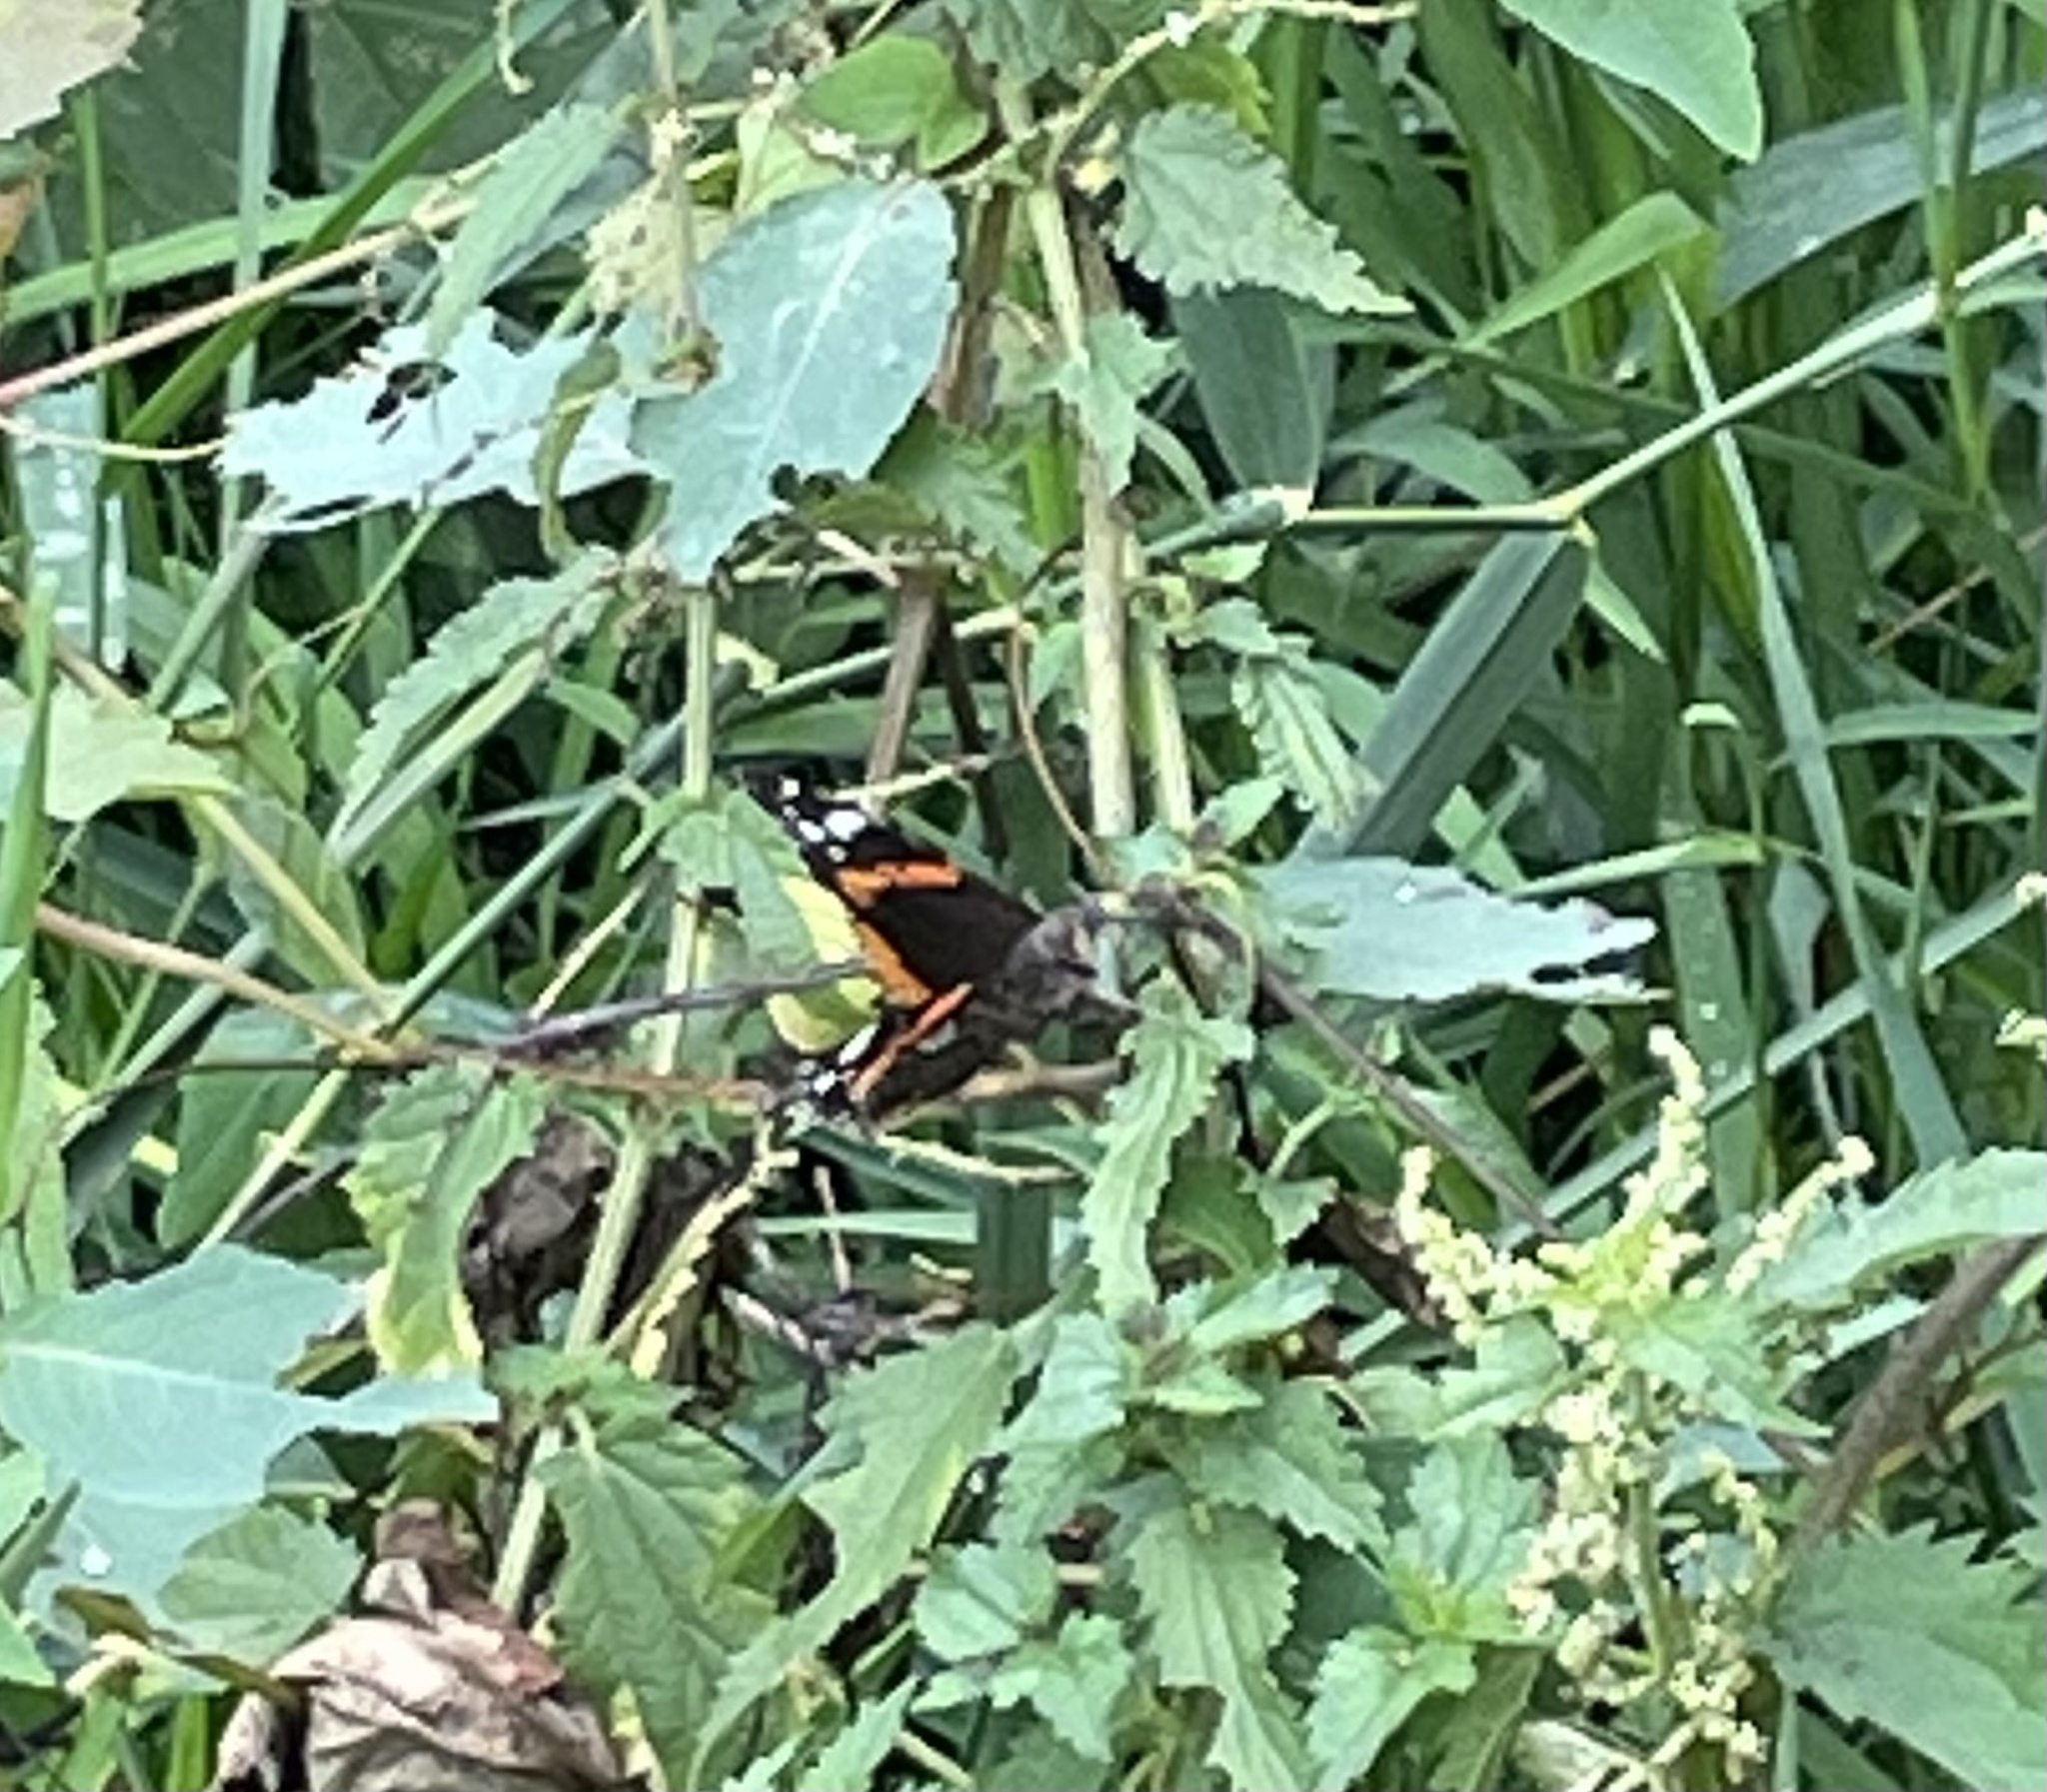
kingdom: Animalia
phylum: Arthropoda
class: Insecta
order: Lepidoptera
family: Nymphalidae
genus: Vanessa
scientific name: Vanessa atalanta
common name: Red admiral
